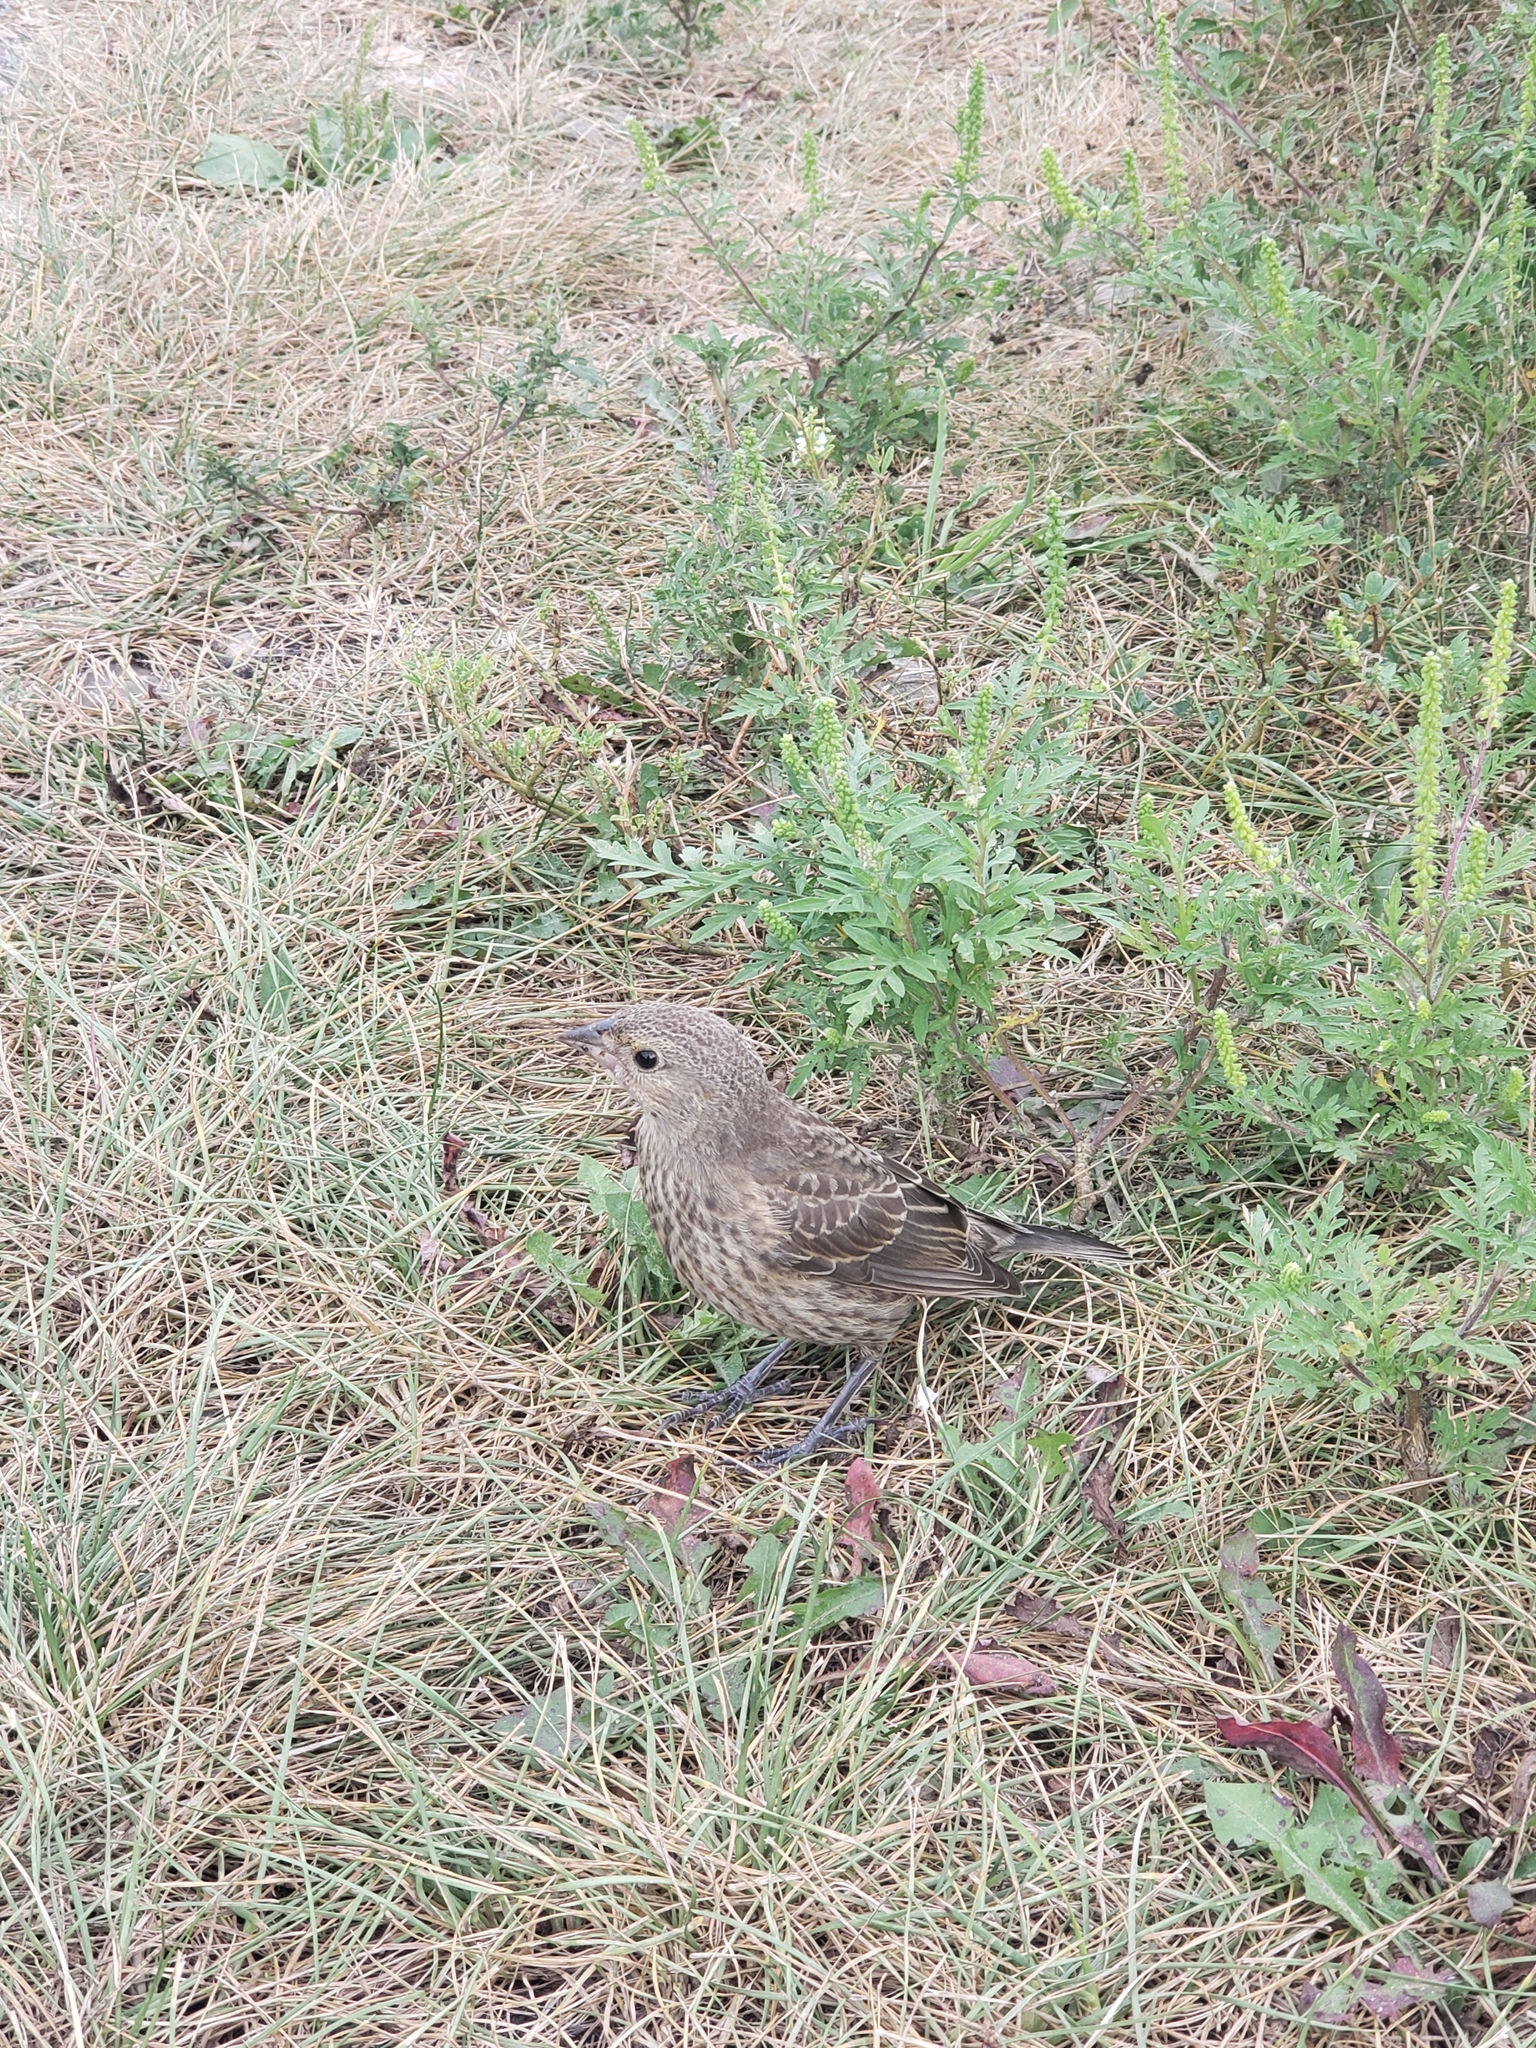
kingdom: Animalia
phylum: Chordata
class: Aves
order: Passeriformes
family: Icteridae
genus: Molothrus
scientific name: Molothrus ater
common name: Brown-headed cowbird
